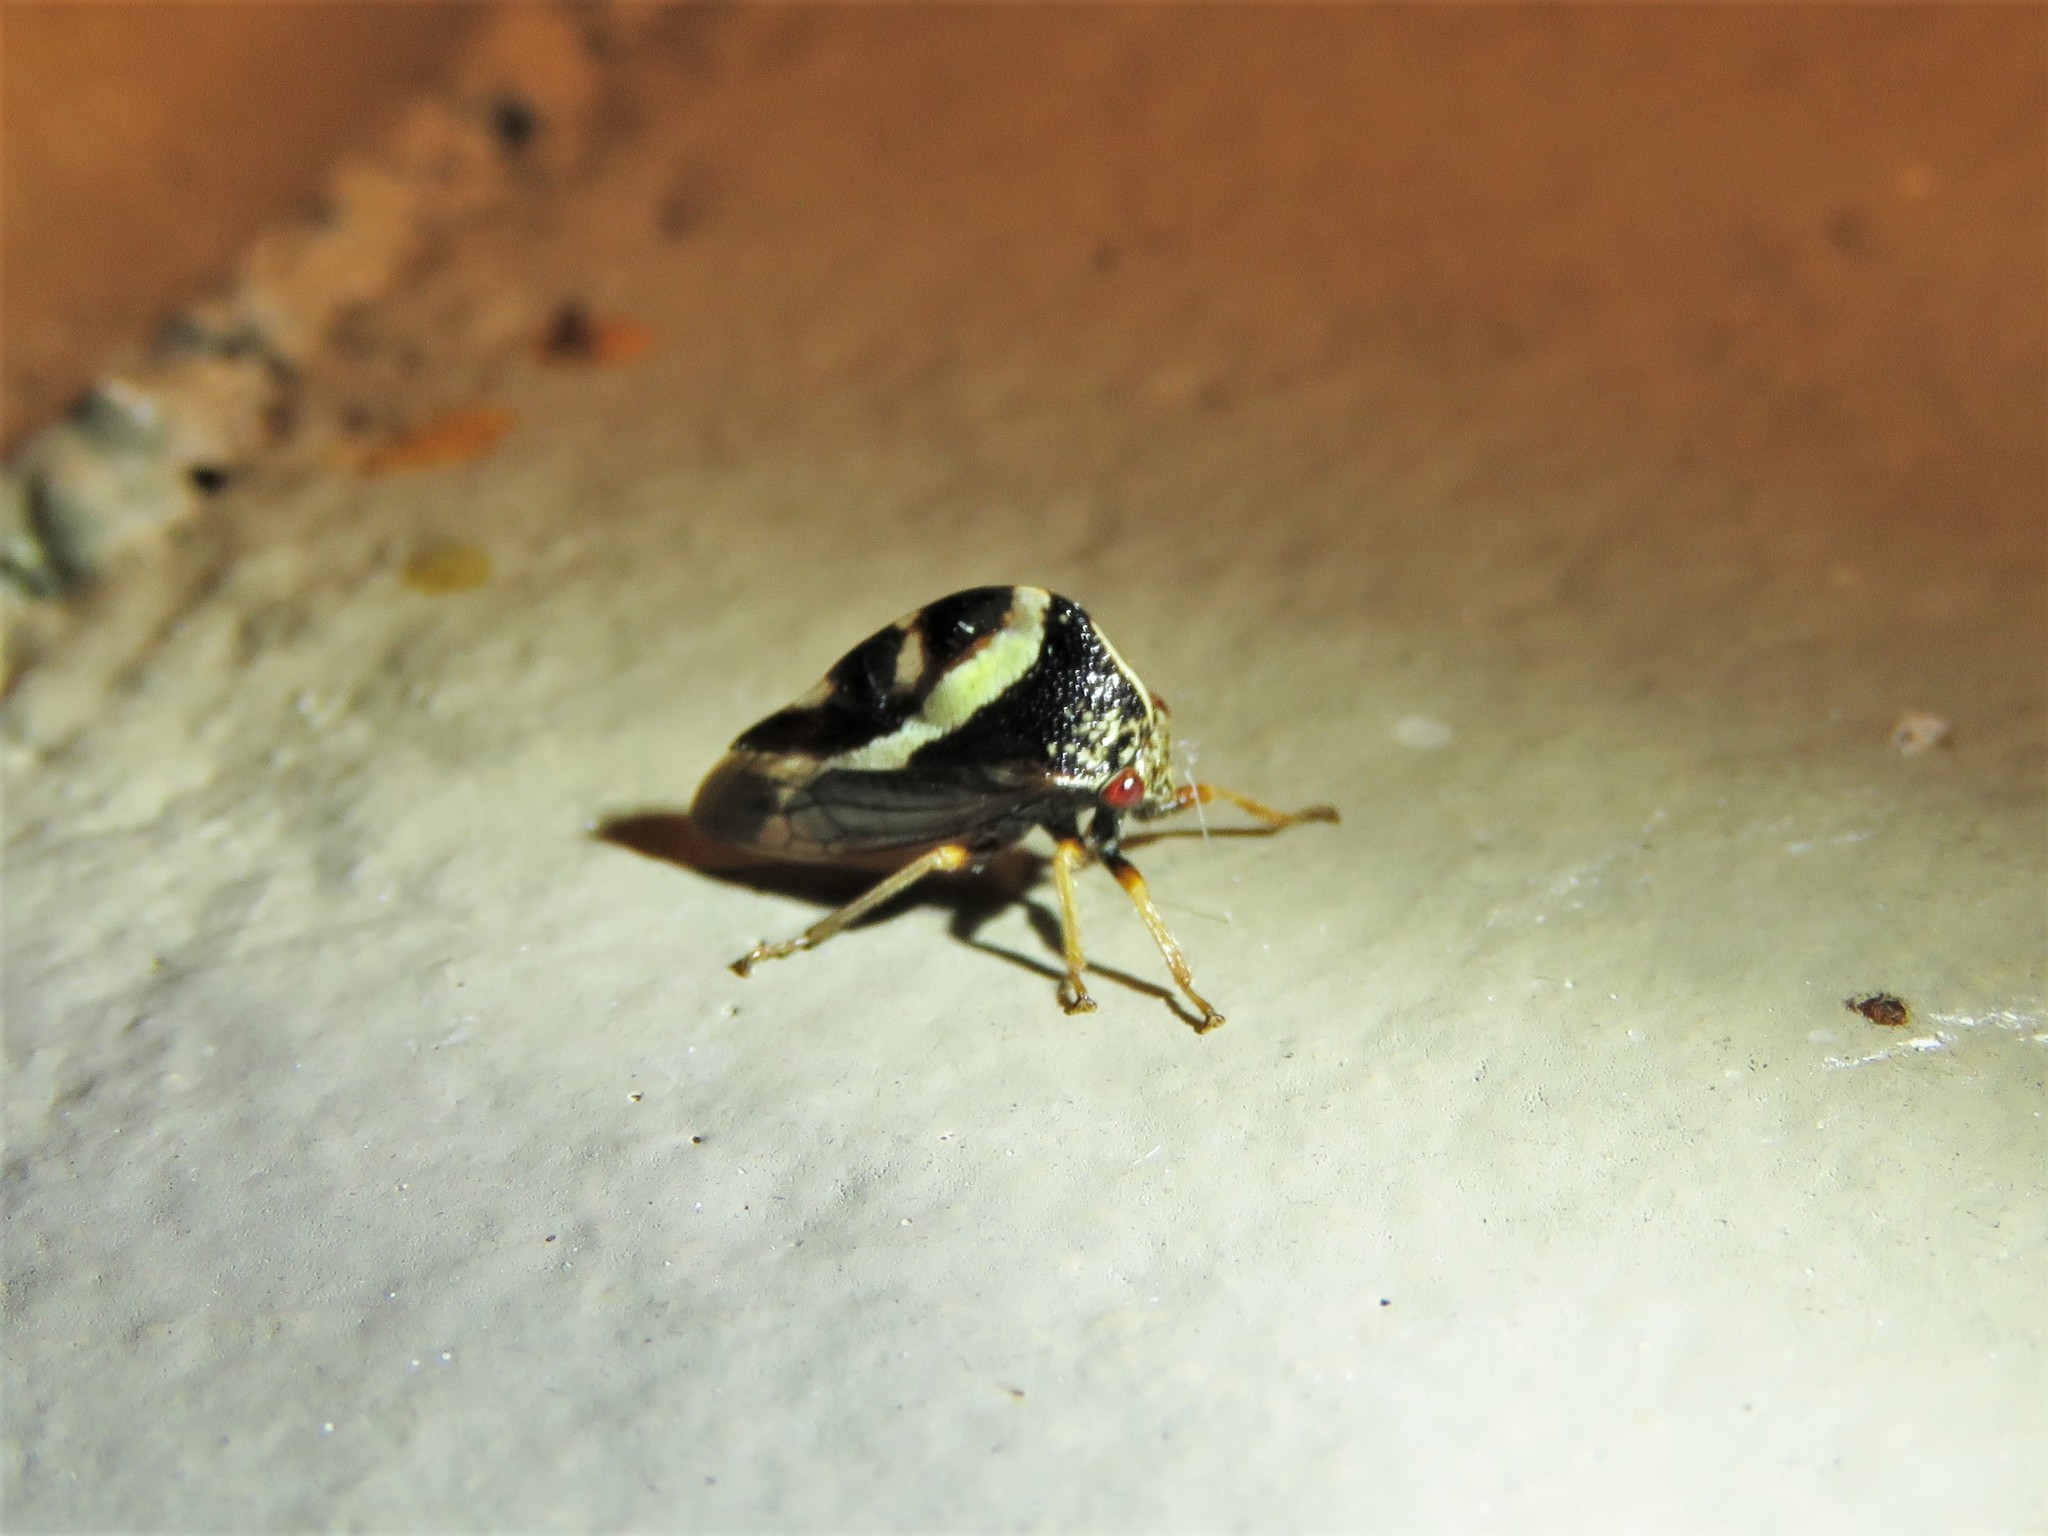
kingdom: Animalia
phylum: Arthropoda
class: Insecta
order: Hemiptera
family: Membracidae
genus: Smilia
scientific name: Smilia camelus
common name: Camel treehopper
